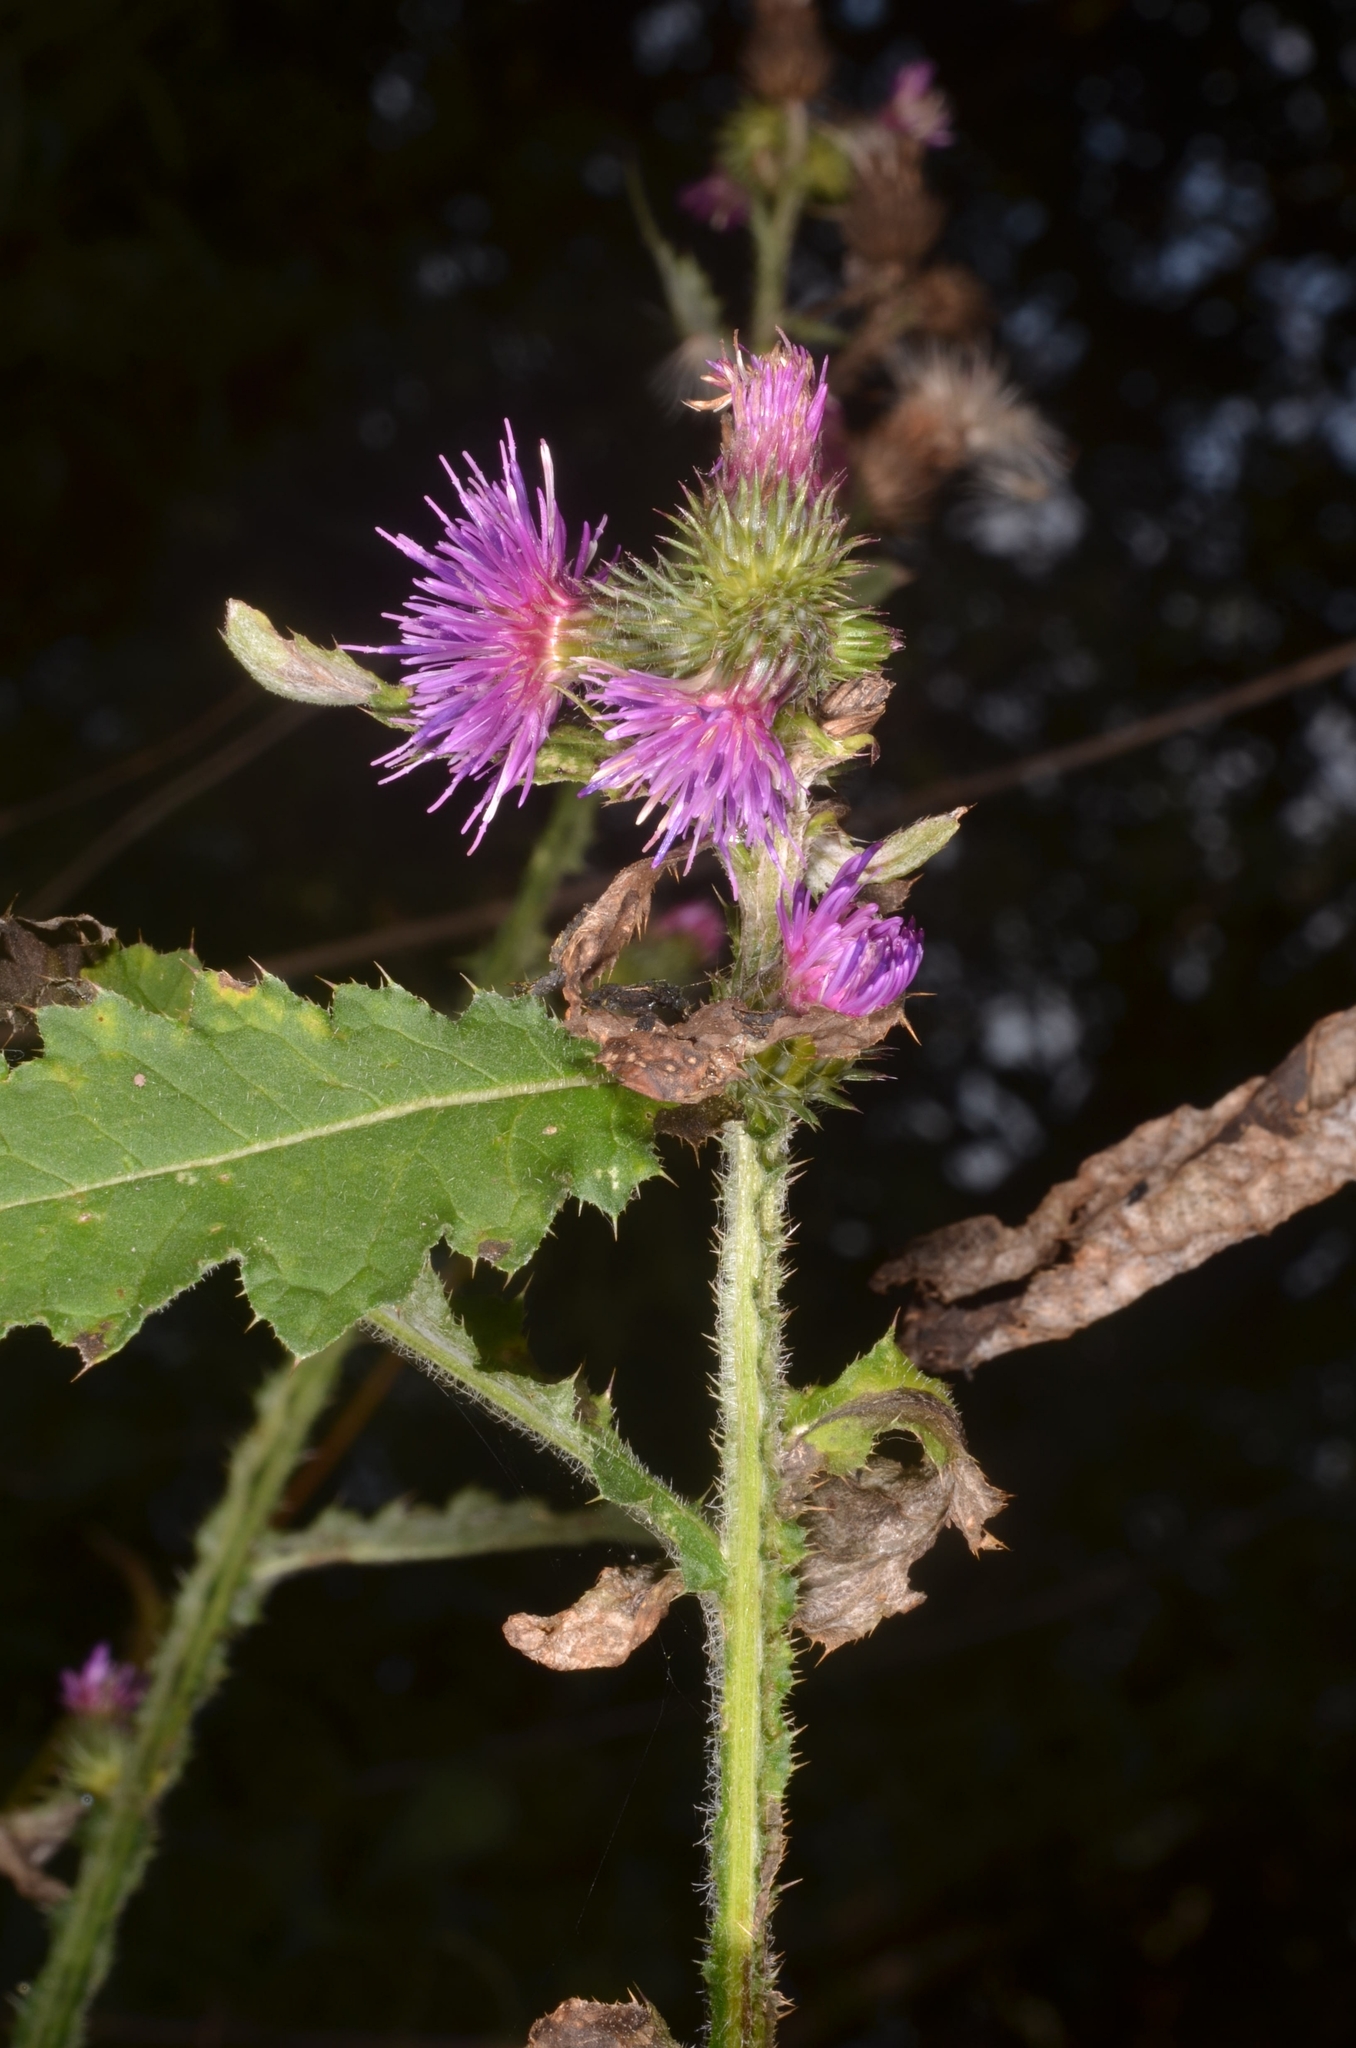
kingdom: Plantae
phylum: Tracheophyta
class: Magnoliopsida
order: Asterales
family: Asteraceae
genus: Carduus
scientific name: Carduus crispus
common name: Welted thistle
